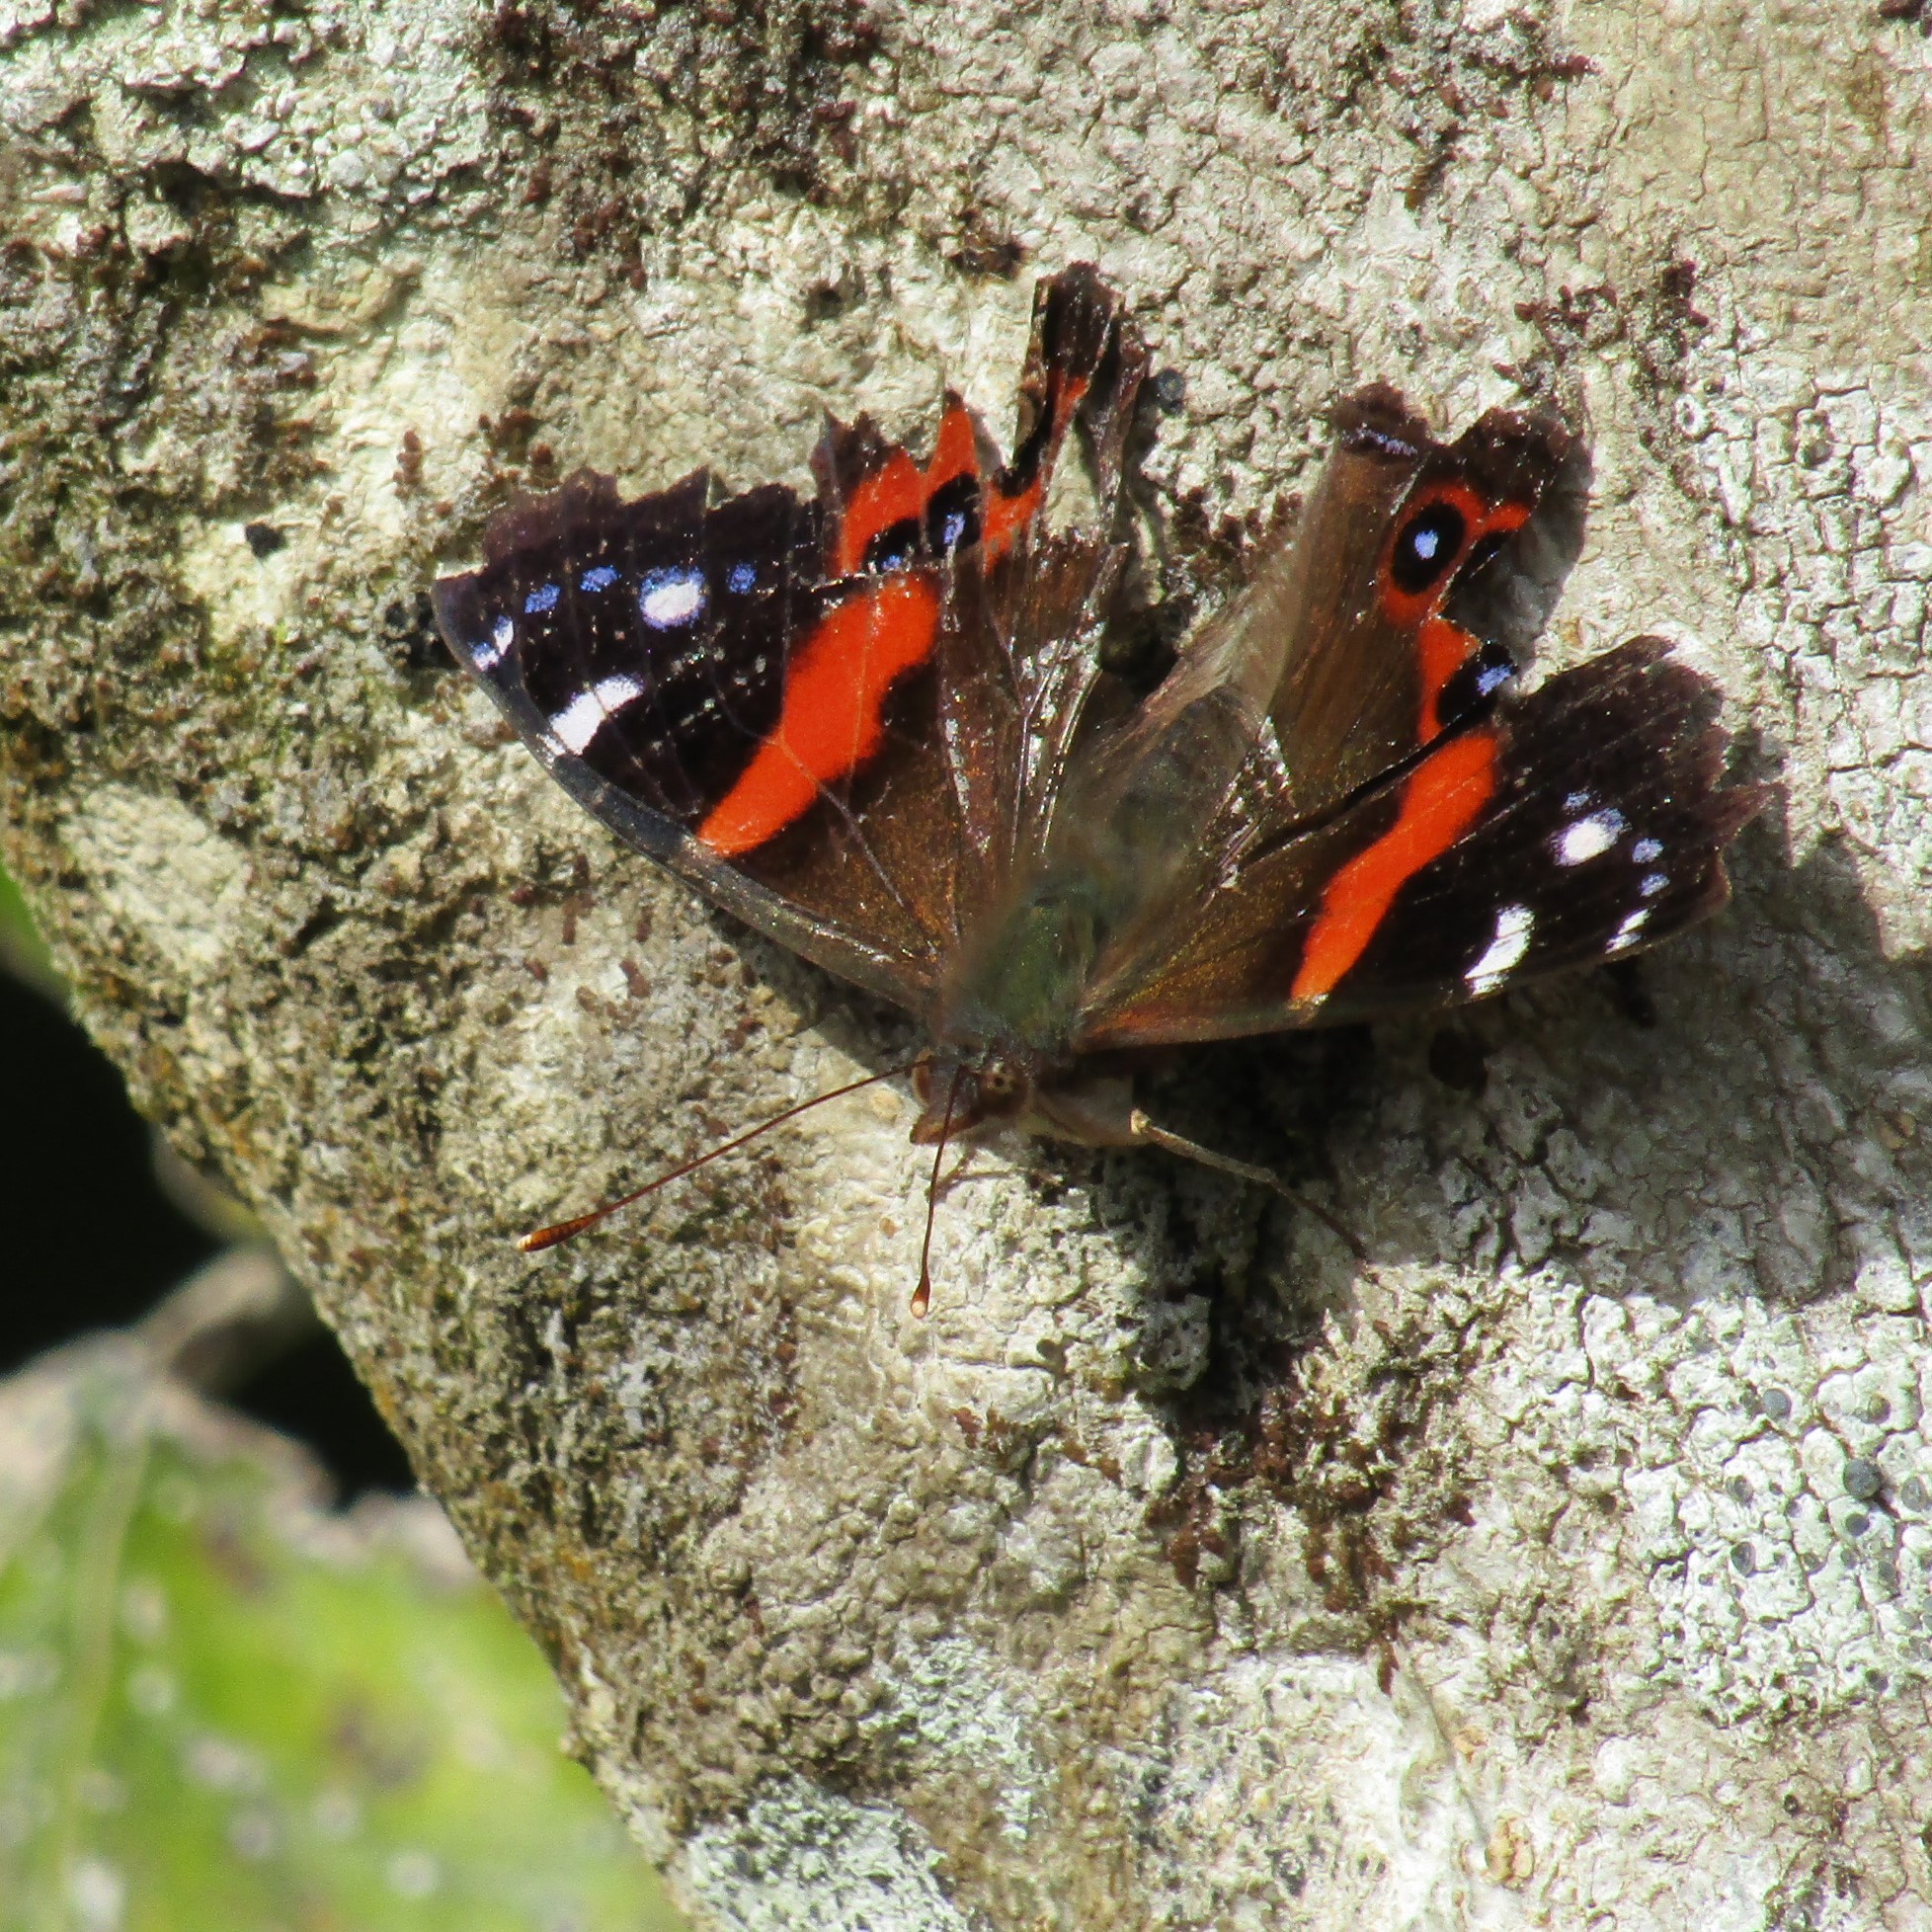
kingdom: Animalia
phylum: Arthropoda
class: Insecta
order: Lepidoptera
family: Nymphalidae
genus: Vanessa
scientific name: Vanessa gonerilla
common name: New zealand red admiral
